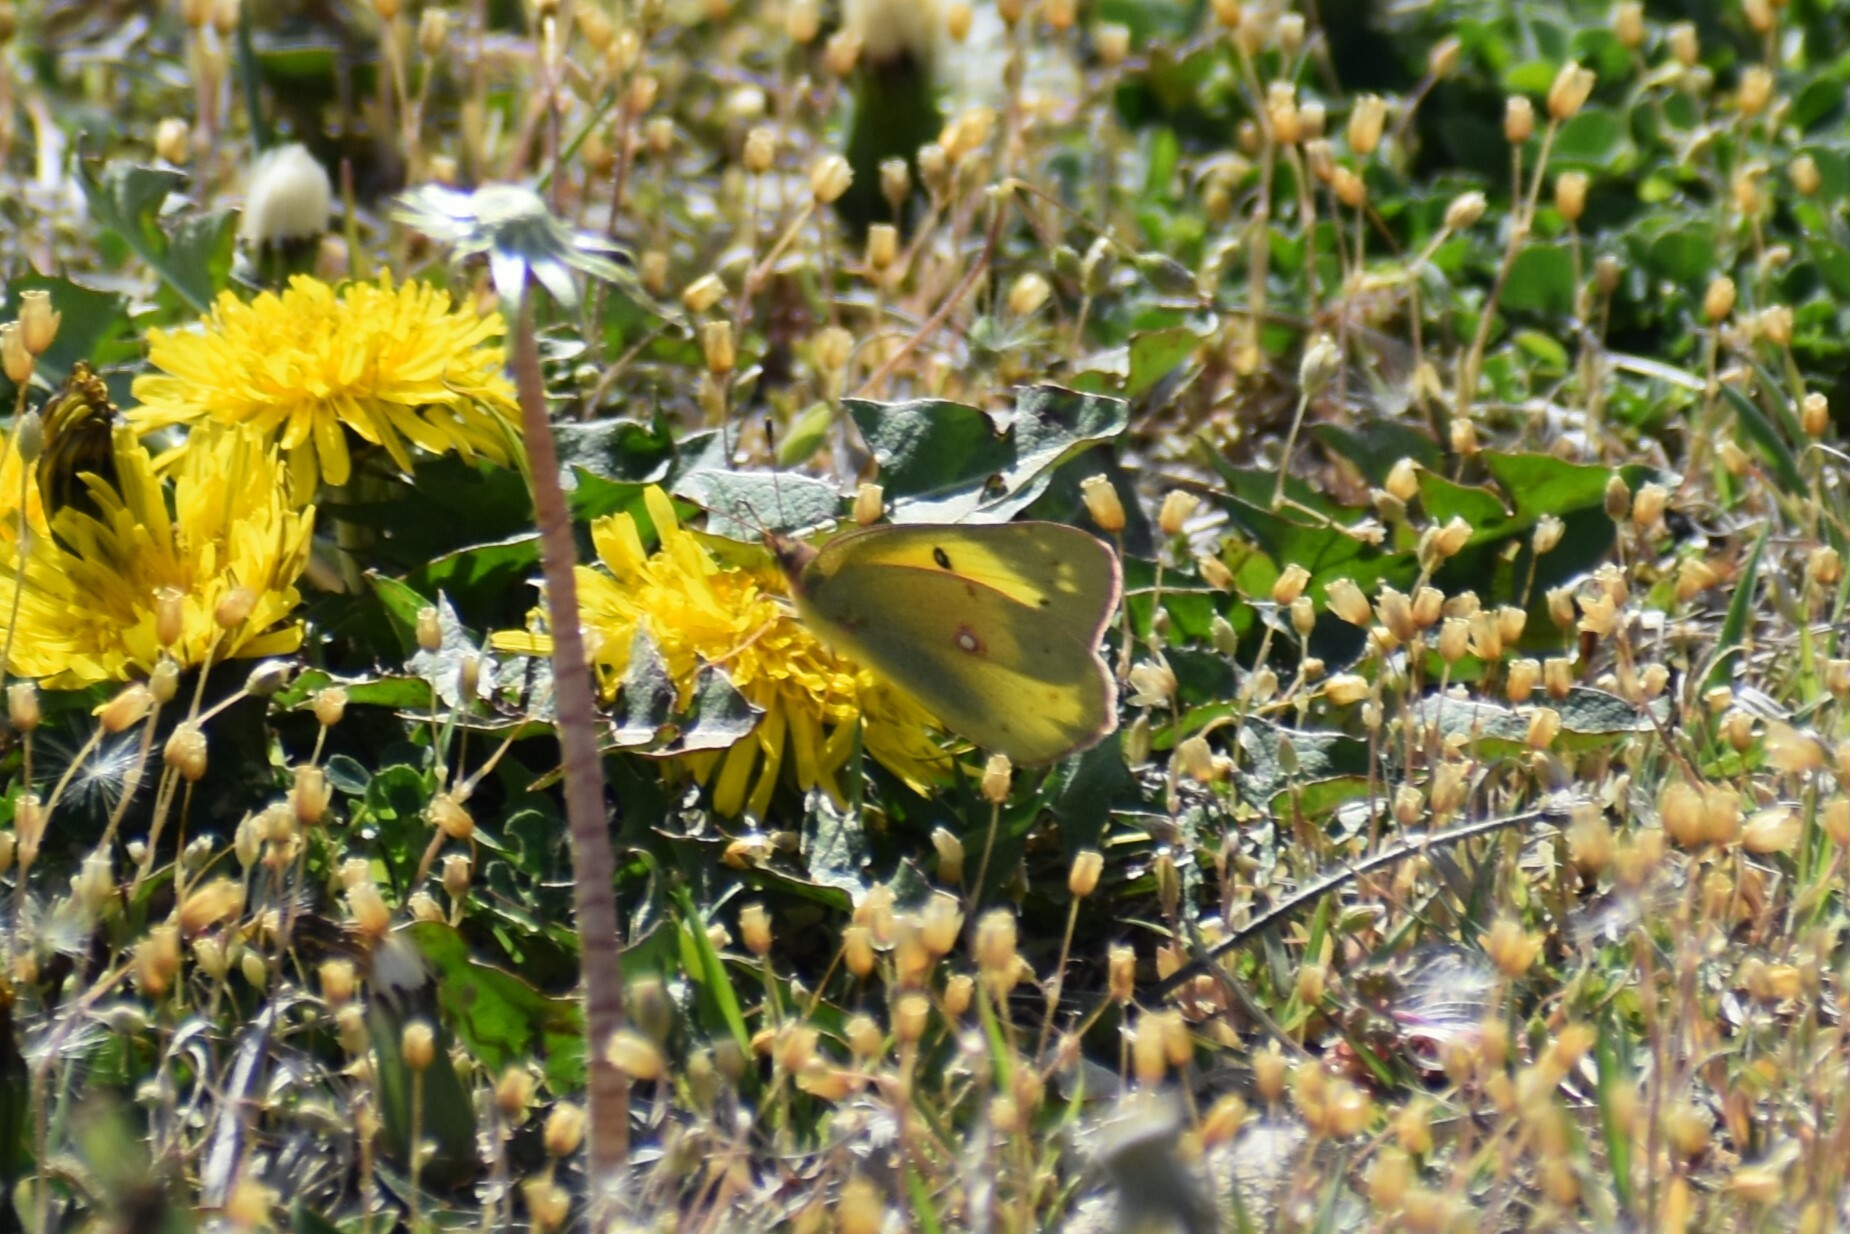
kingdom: Animalia
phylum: Arthropoda
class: Insecta
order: Lepidoptera
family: Pieridae
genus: Colias
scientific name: Colias eurytheme
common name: Alfalfa butterfly
